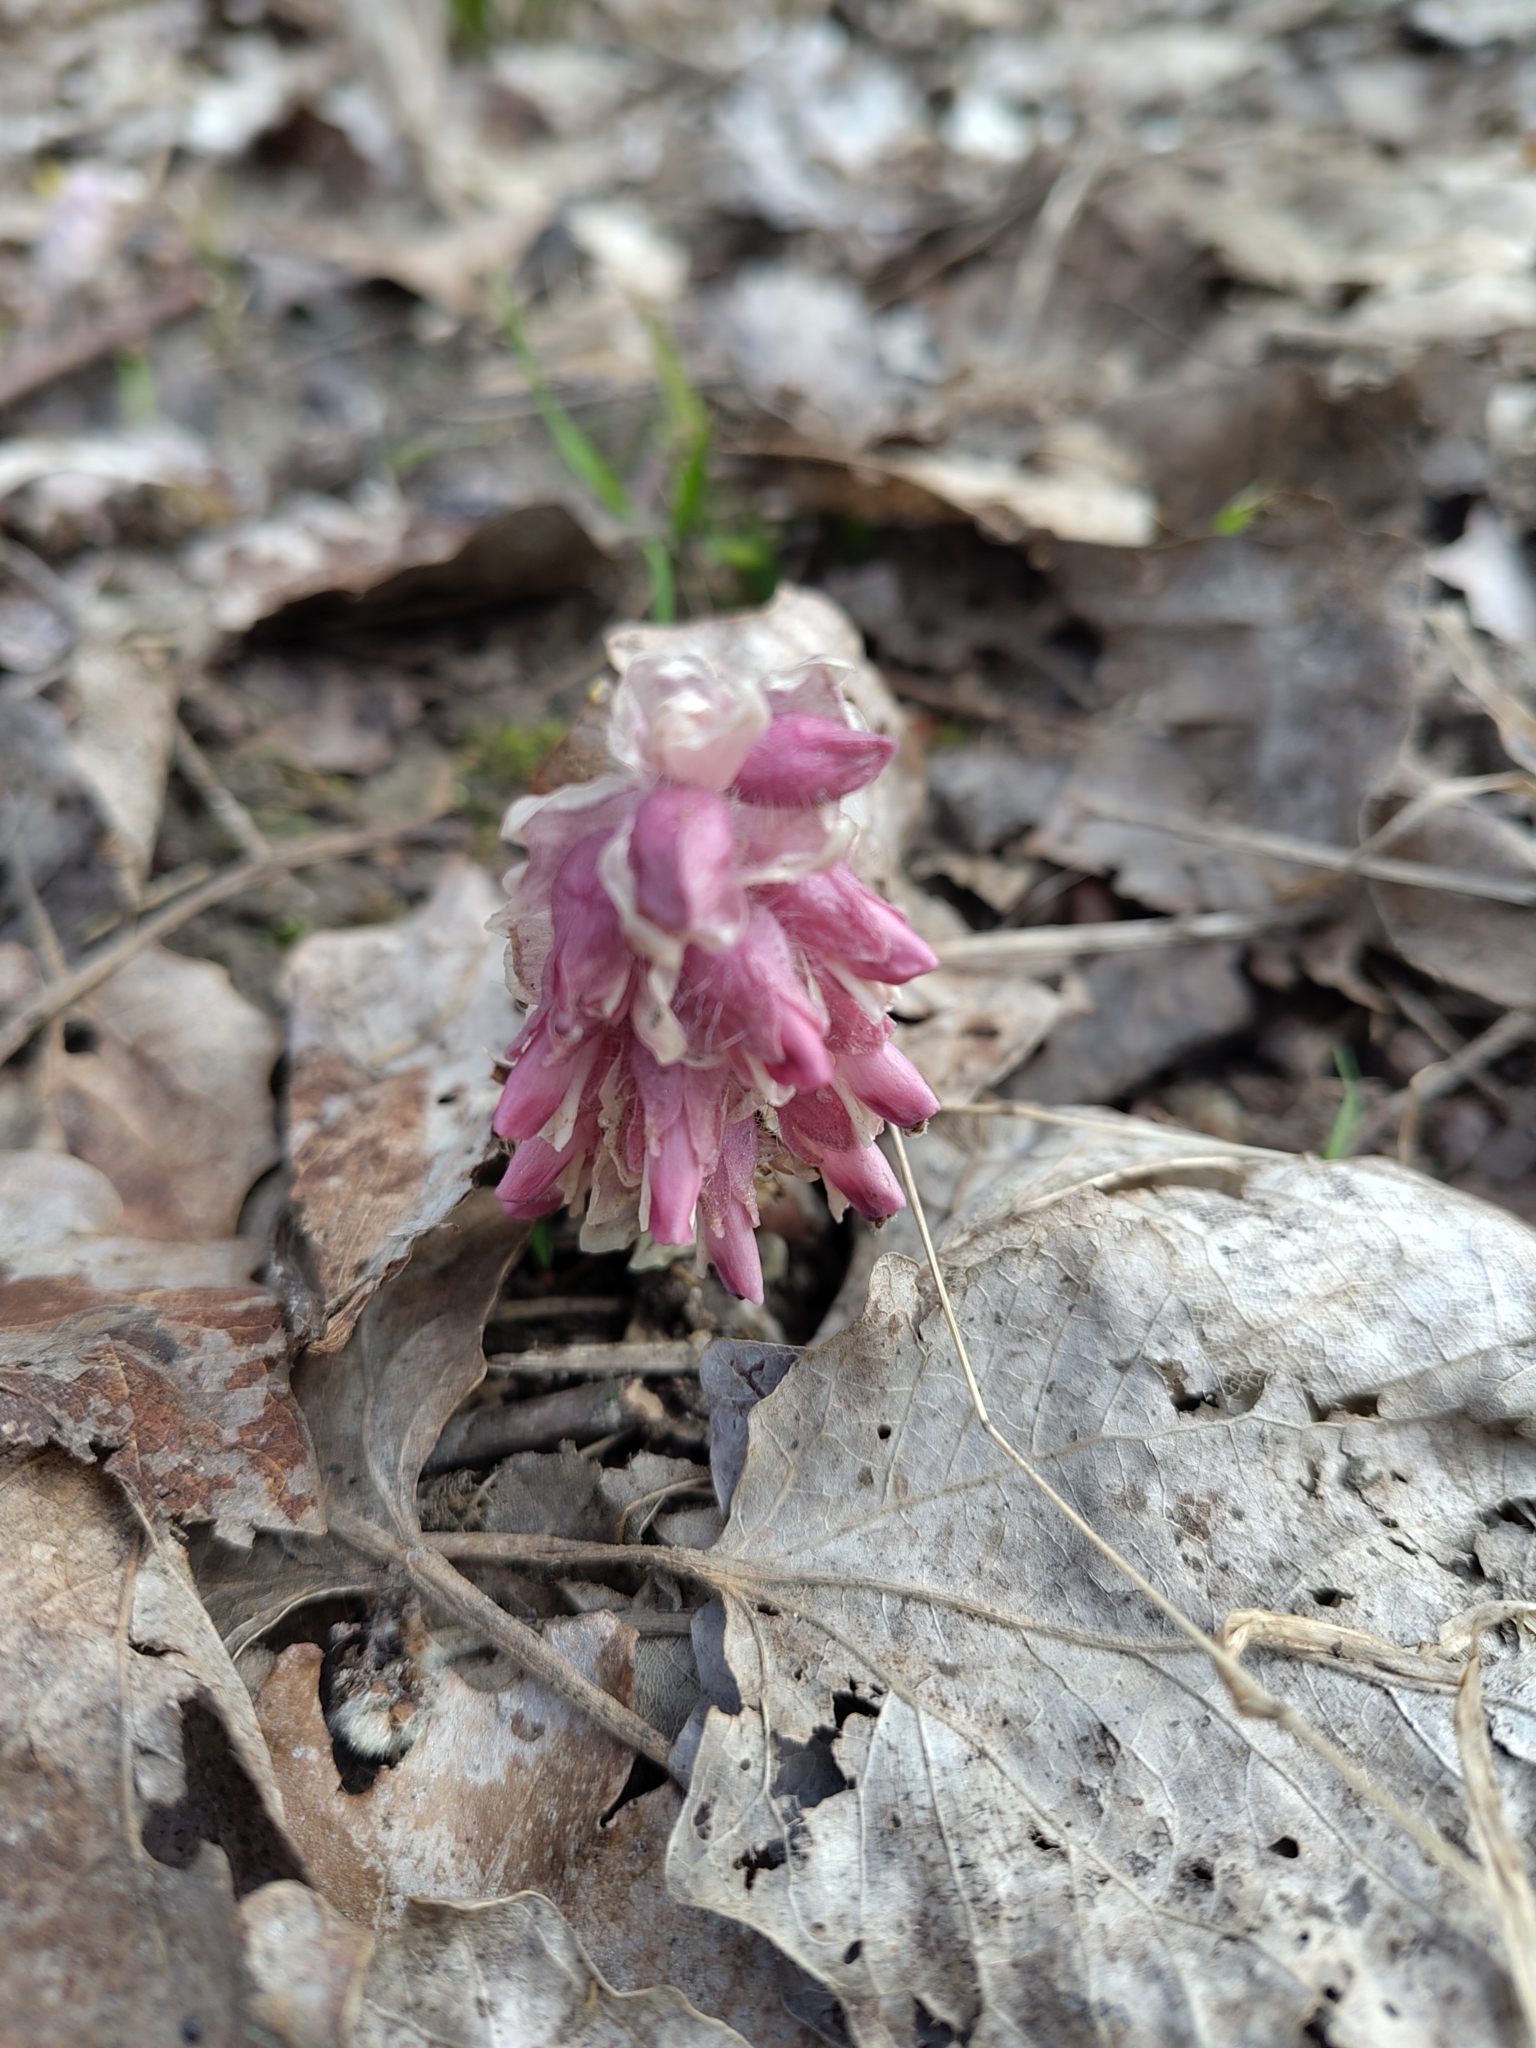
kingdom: Plantae
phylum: Tracheophyta
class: Magnoliopsida
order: Lamiales
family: Orobanchaceae
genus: Lathraea
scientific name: Lathraea squamaria
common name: Toothwort
